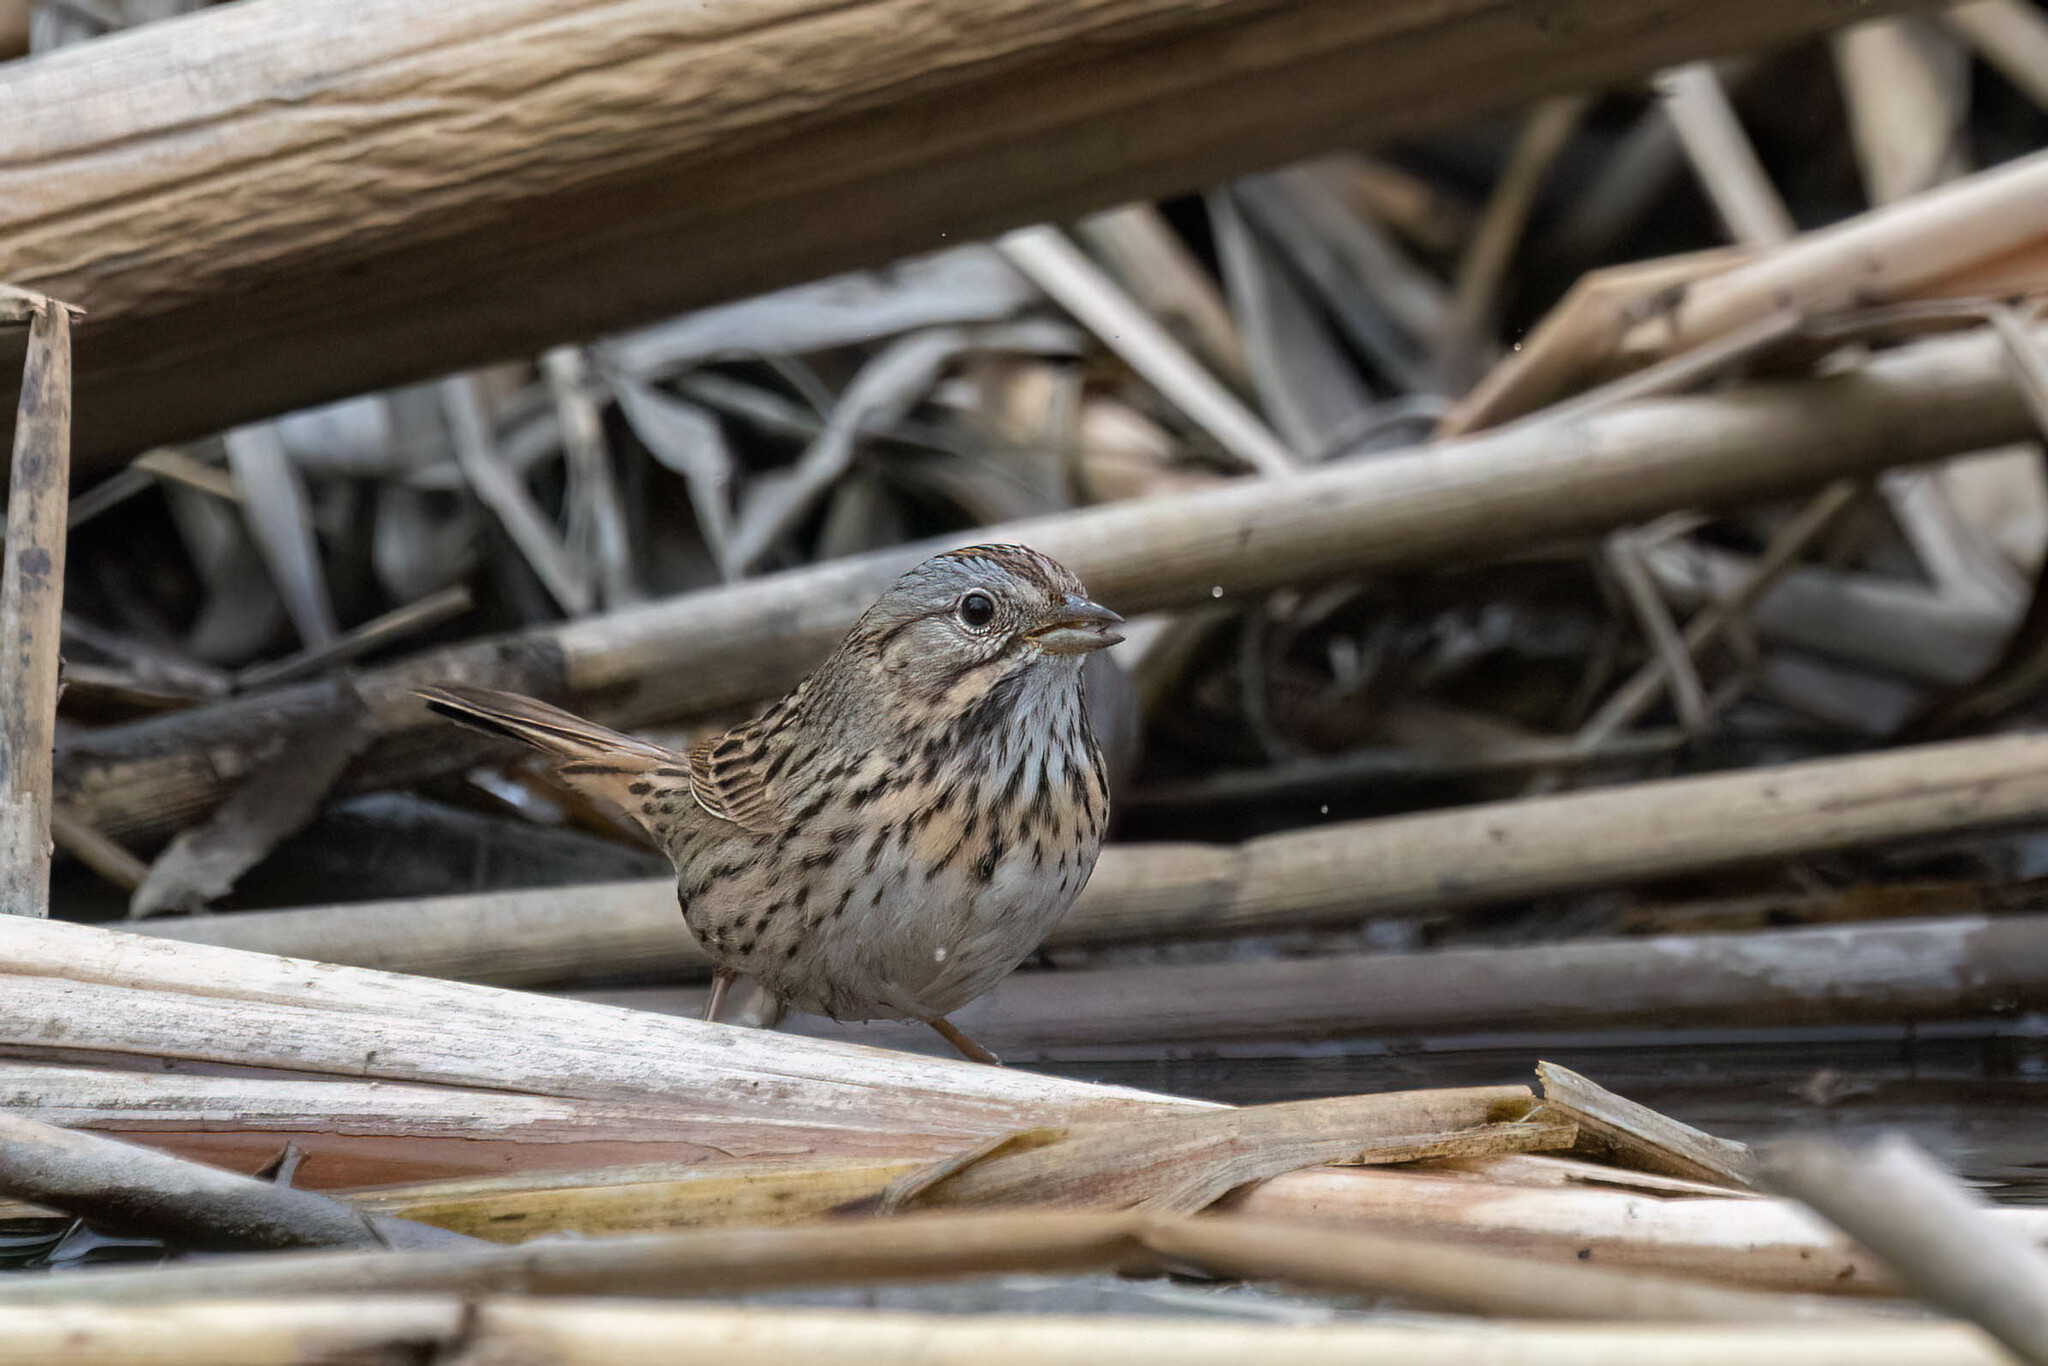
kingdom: Animalia
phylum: Chordata
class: Aves
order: Passeriformes
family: Passerellidae
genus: Melospiza
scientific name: Melospiza lincolnii
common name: Lincoln's sparrow
